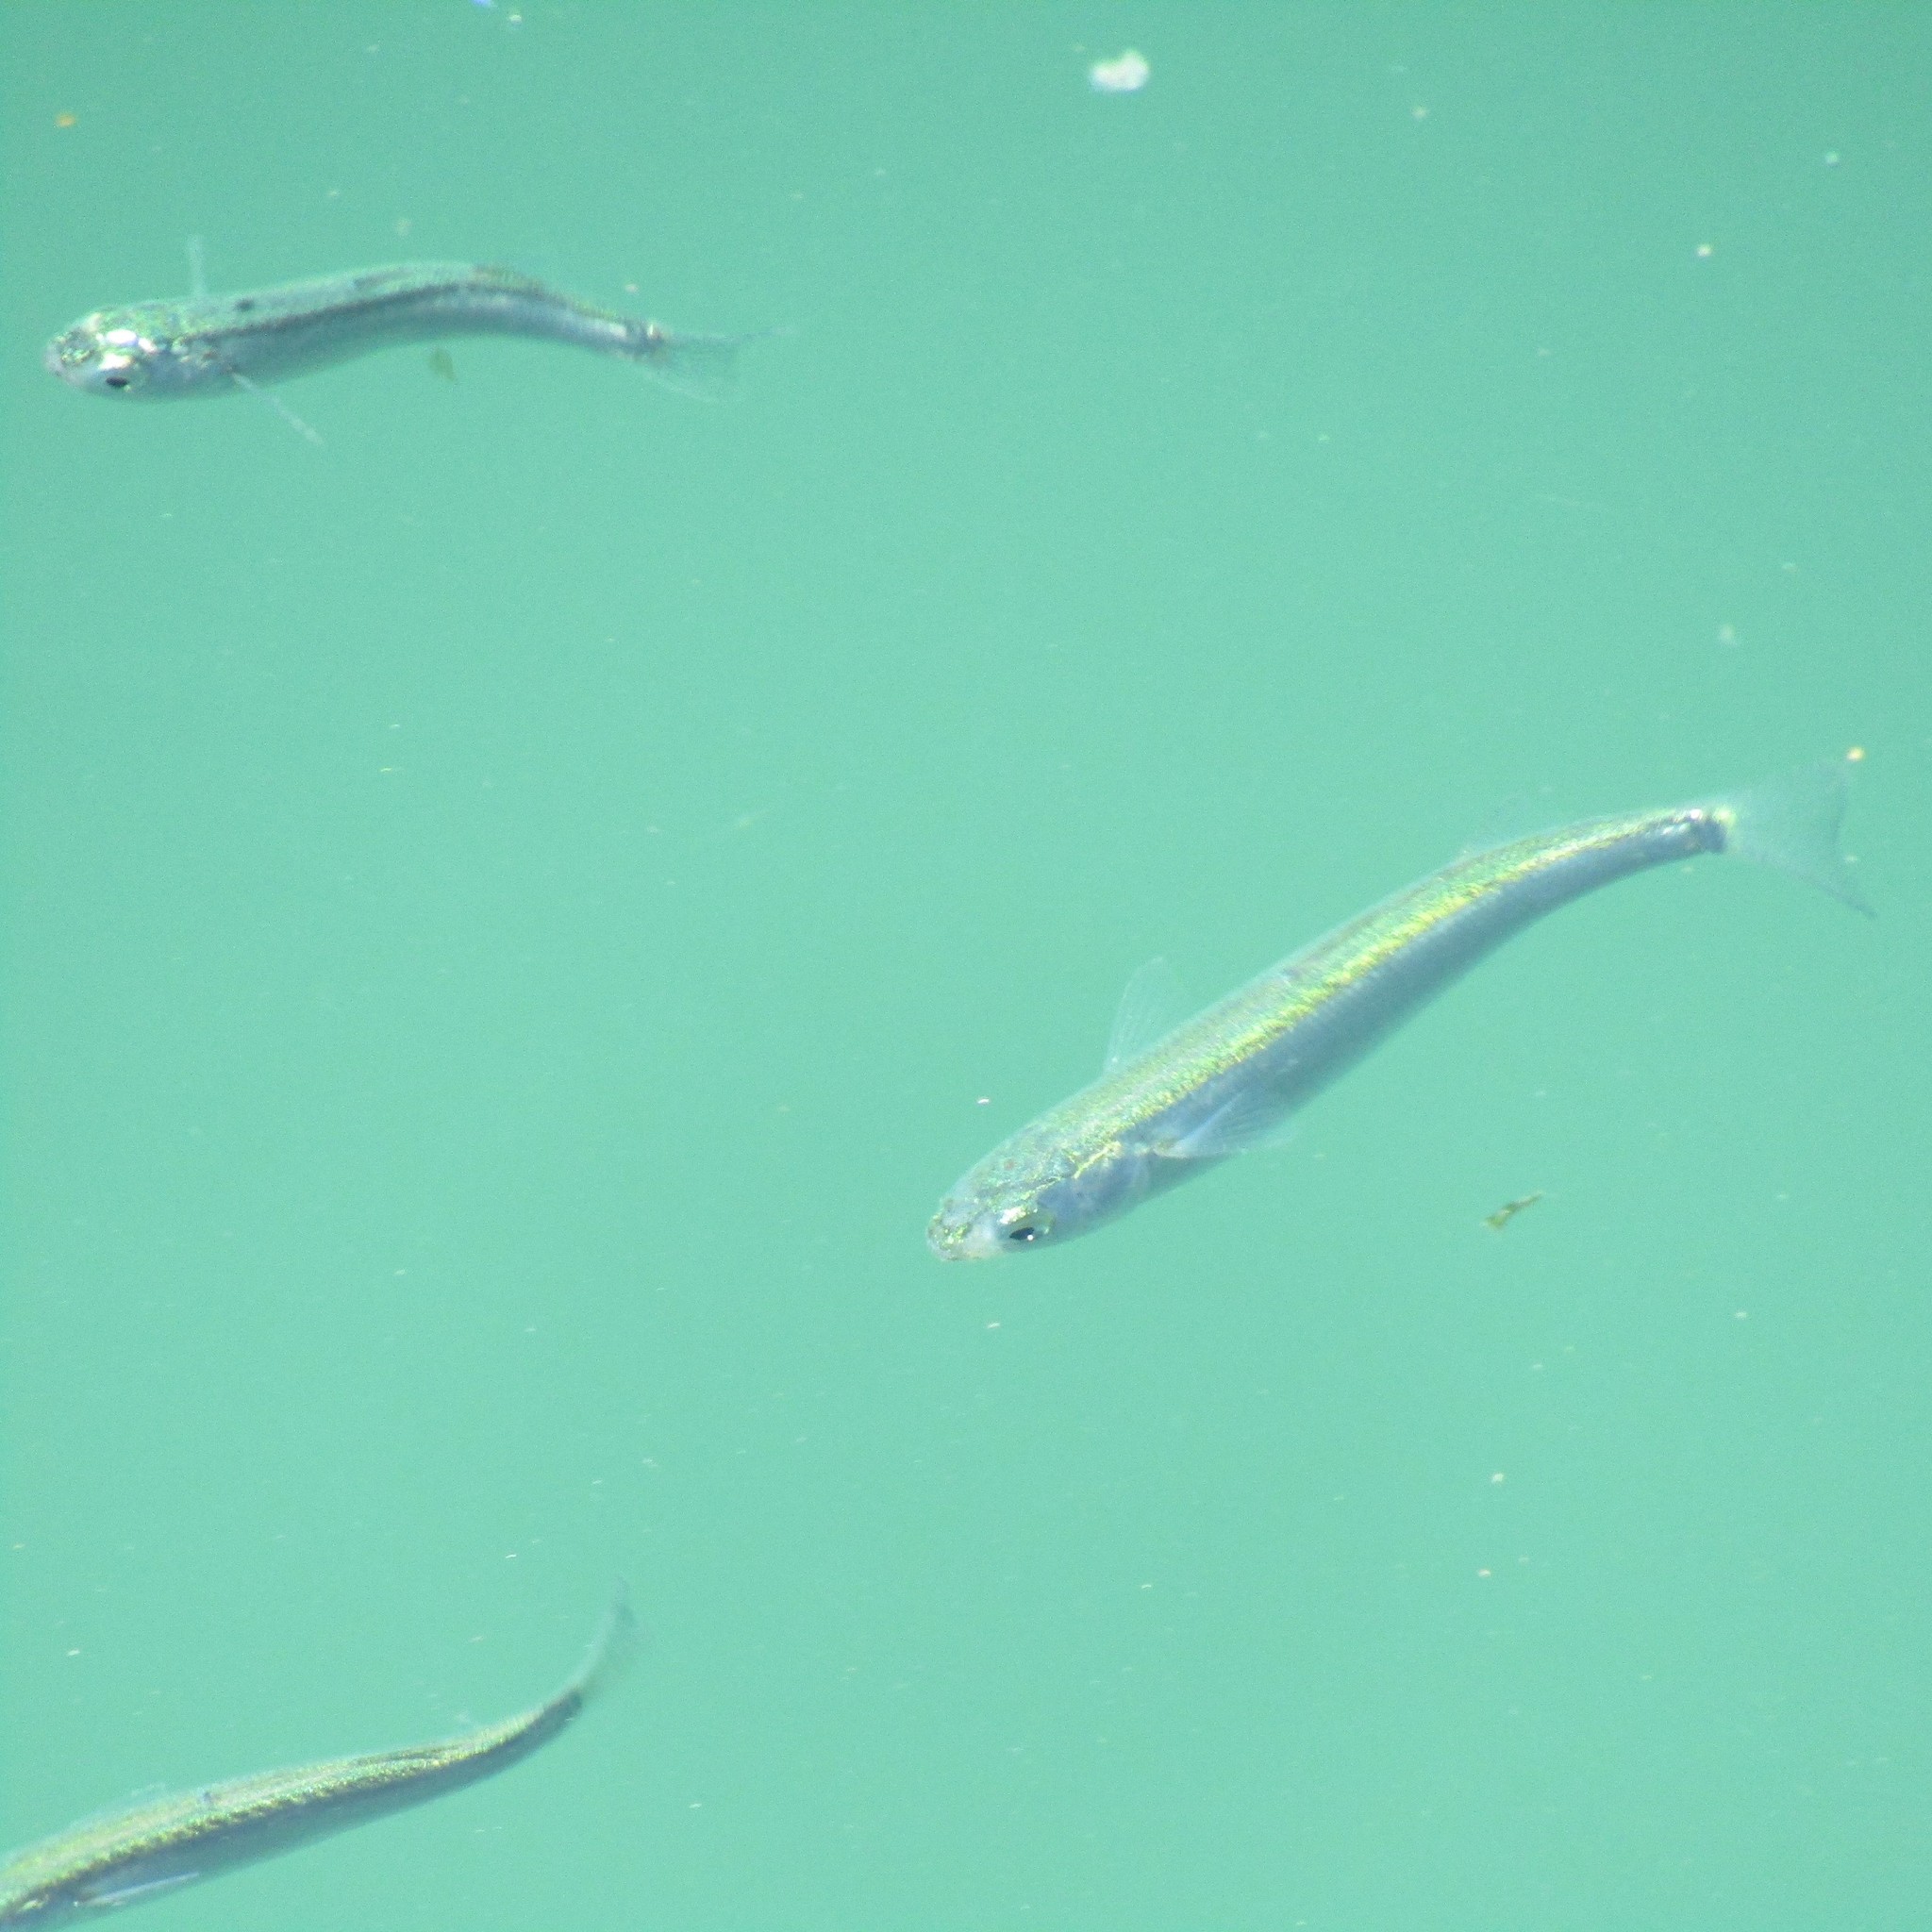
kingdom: Animalia
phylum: Chordata
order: Mugiliformes
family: Mugilidae
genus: Aldrichetta
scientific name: Aldrichetta forsteri
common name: Yellow-eye mullet
